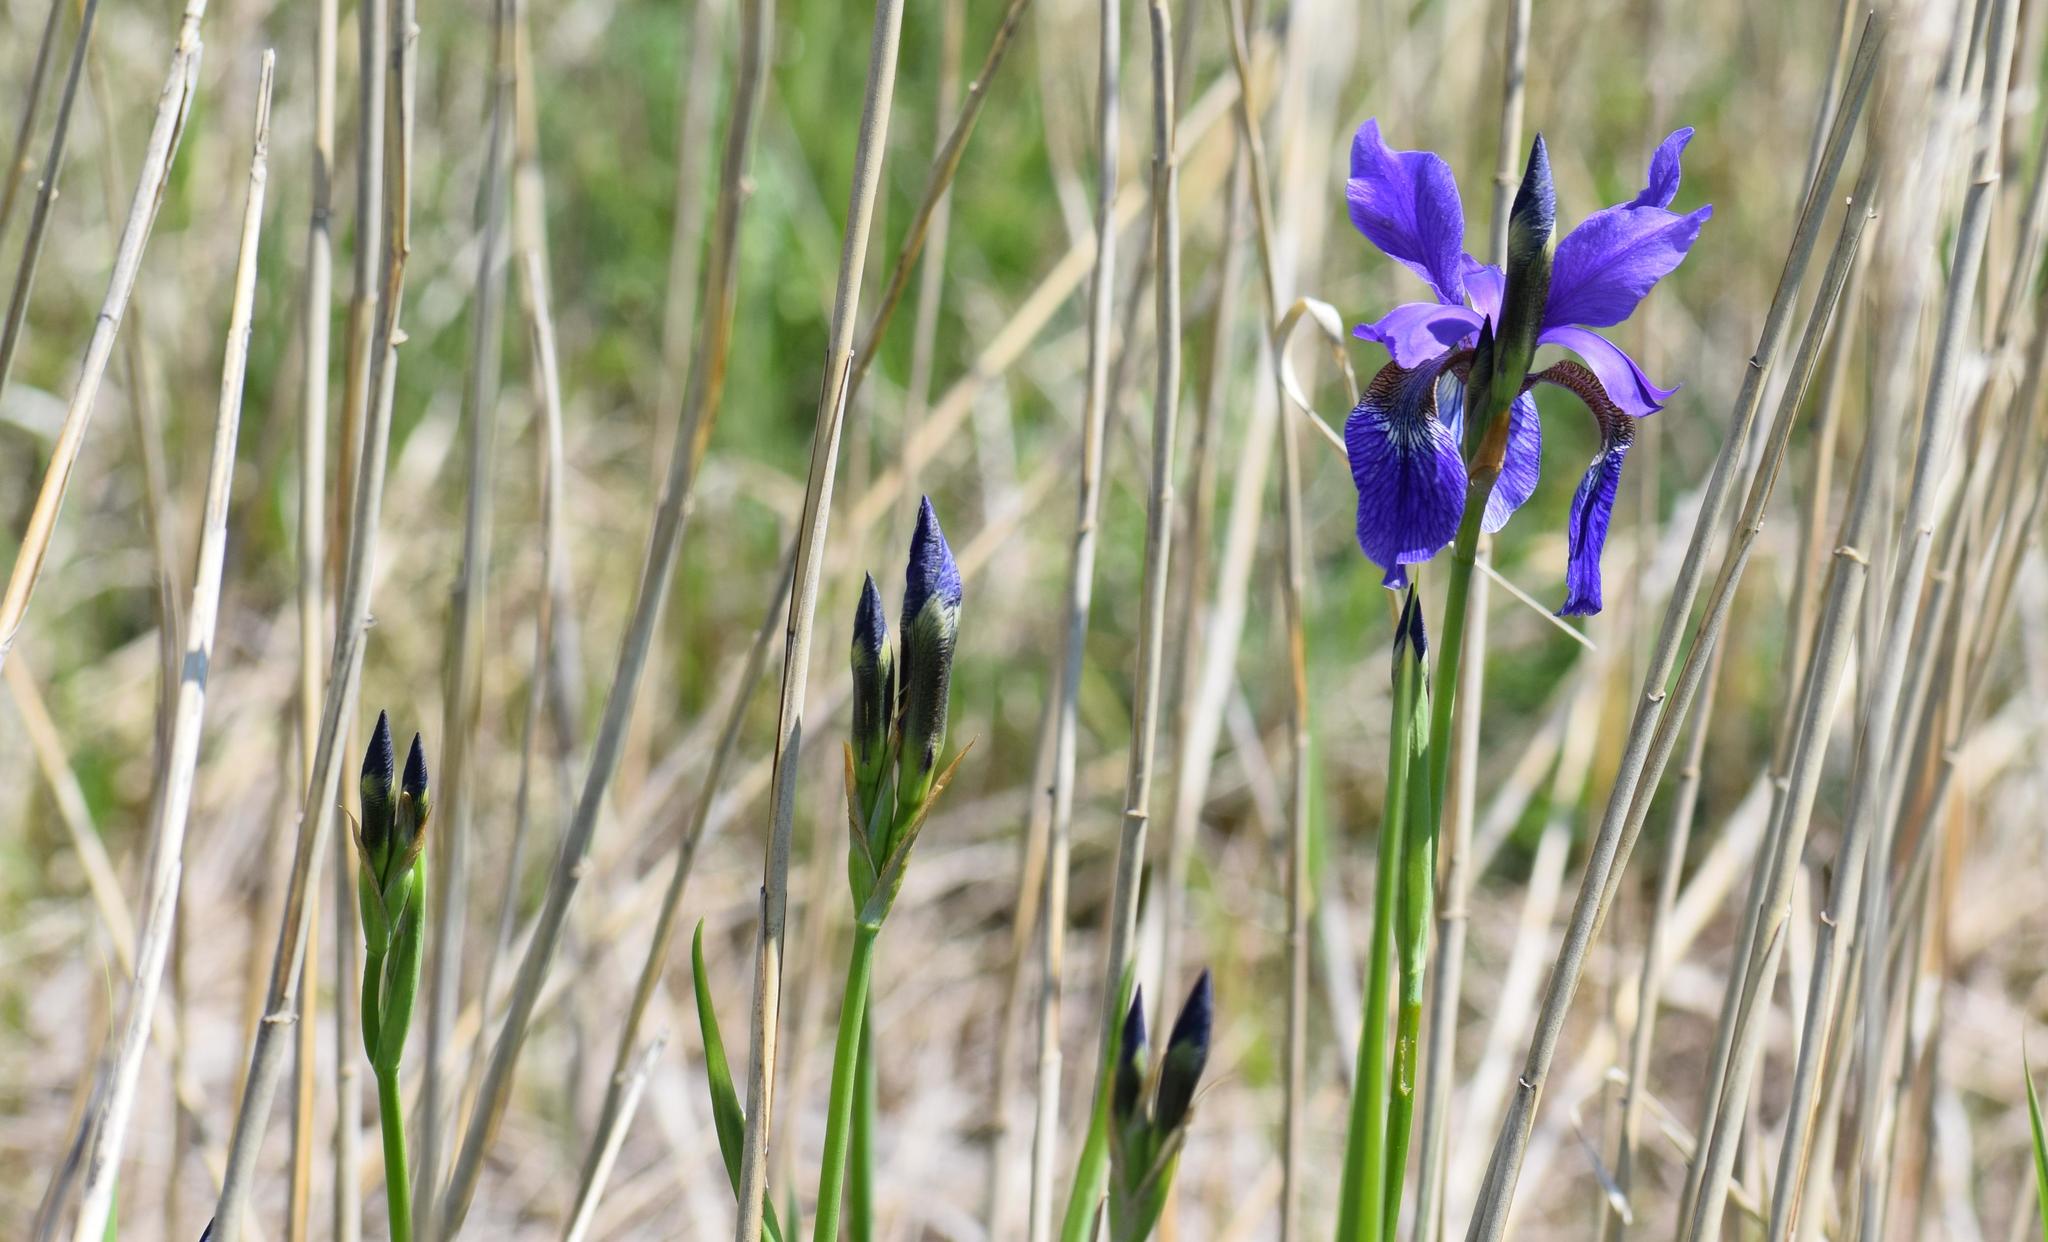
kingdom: Plantae
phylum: Tracheophyta
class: Liliopsida
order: Asparagales
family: Iridaceae
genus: Iris
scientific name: Iris sibirica
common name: Siberian iris
